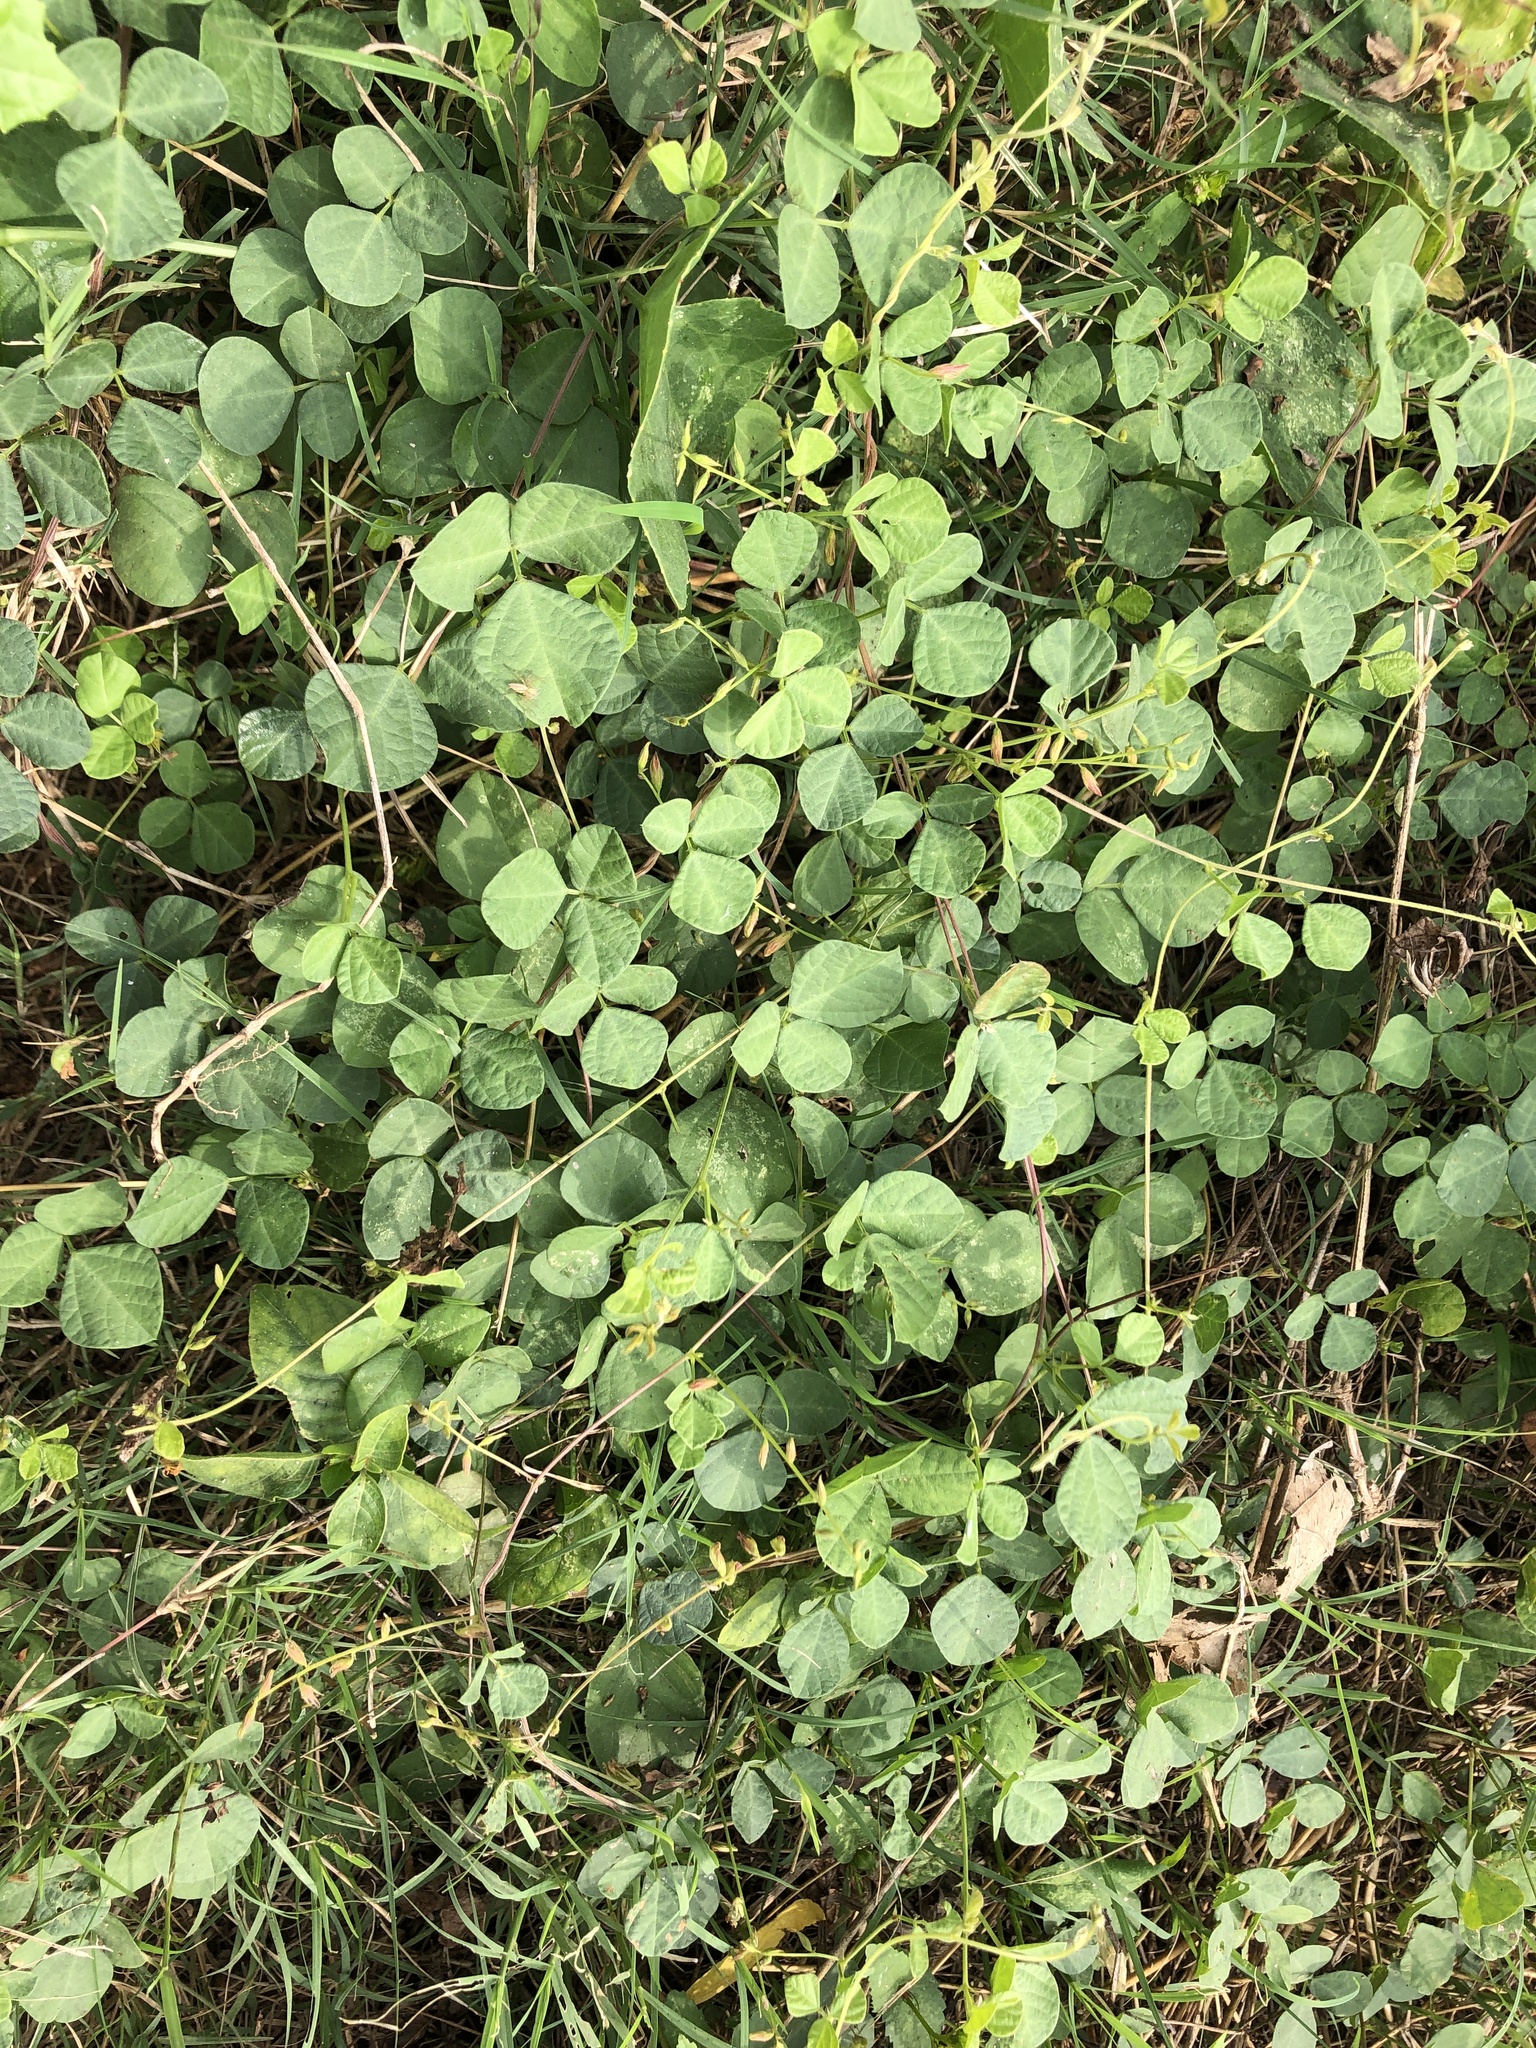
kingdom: Plantae
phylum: Tracheophyta
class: Magnoliopsida
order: Fabales
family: Fabaceae
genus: Rhynchosia
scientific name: Rhynchosia minima
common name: Least snoutbean
